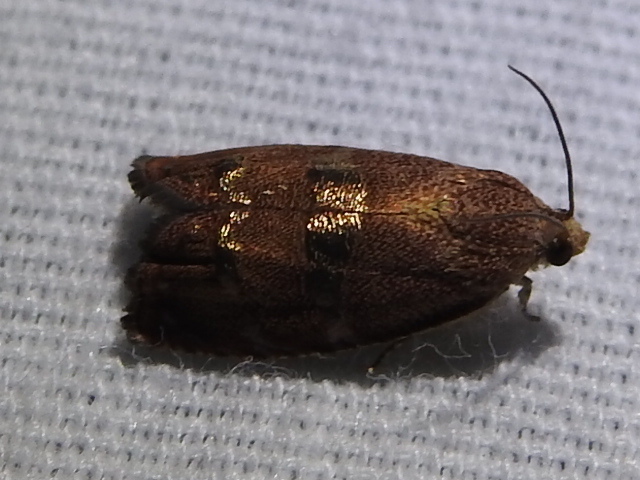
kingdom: Animalia
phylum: Arthropoda
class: Insecta
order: Lepidoptera
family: Tortricidae
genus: Cydia
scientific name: Cydia latiferreana
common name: Filbertworm moth
